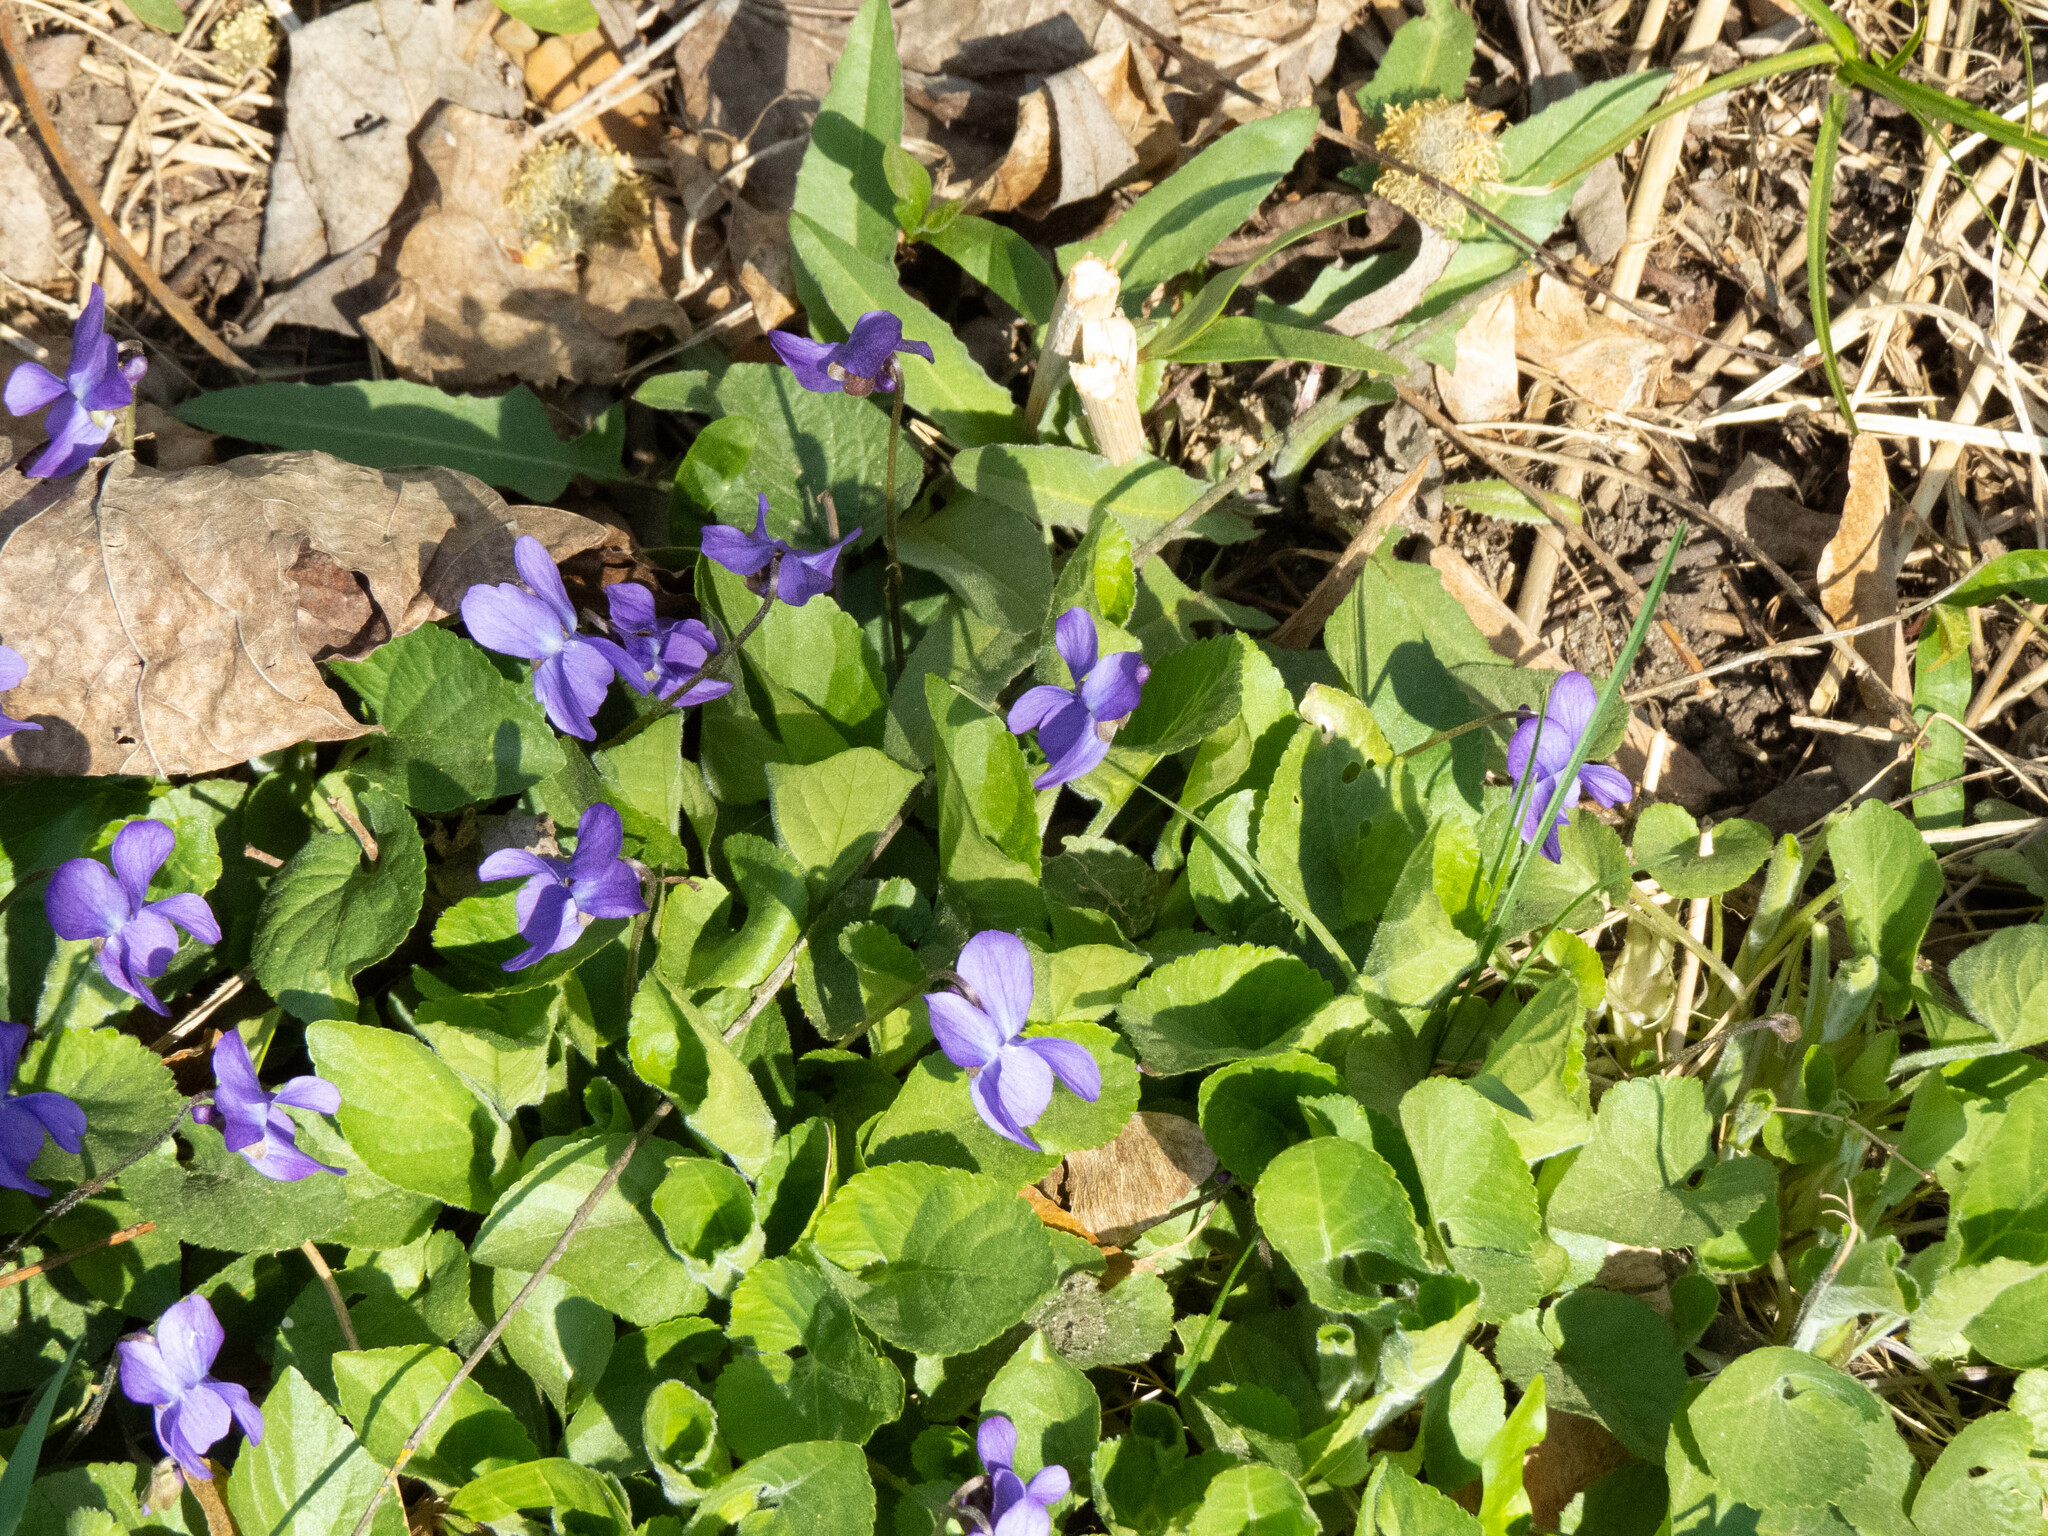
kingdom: Plantae
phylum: Tracheophyta
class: Magnoliopsida
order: Malpighiales
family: Violaceae
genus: Viola
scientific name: Viola odorata
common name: Sweet violet
